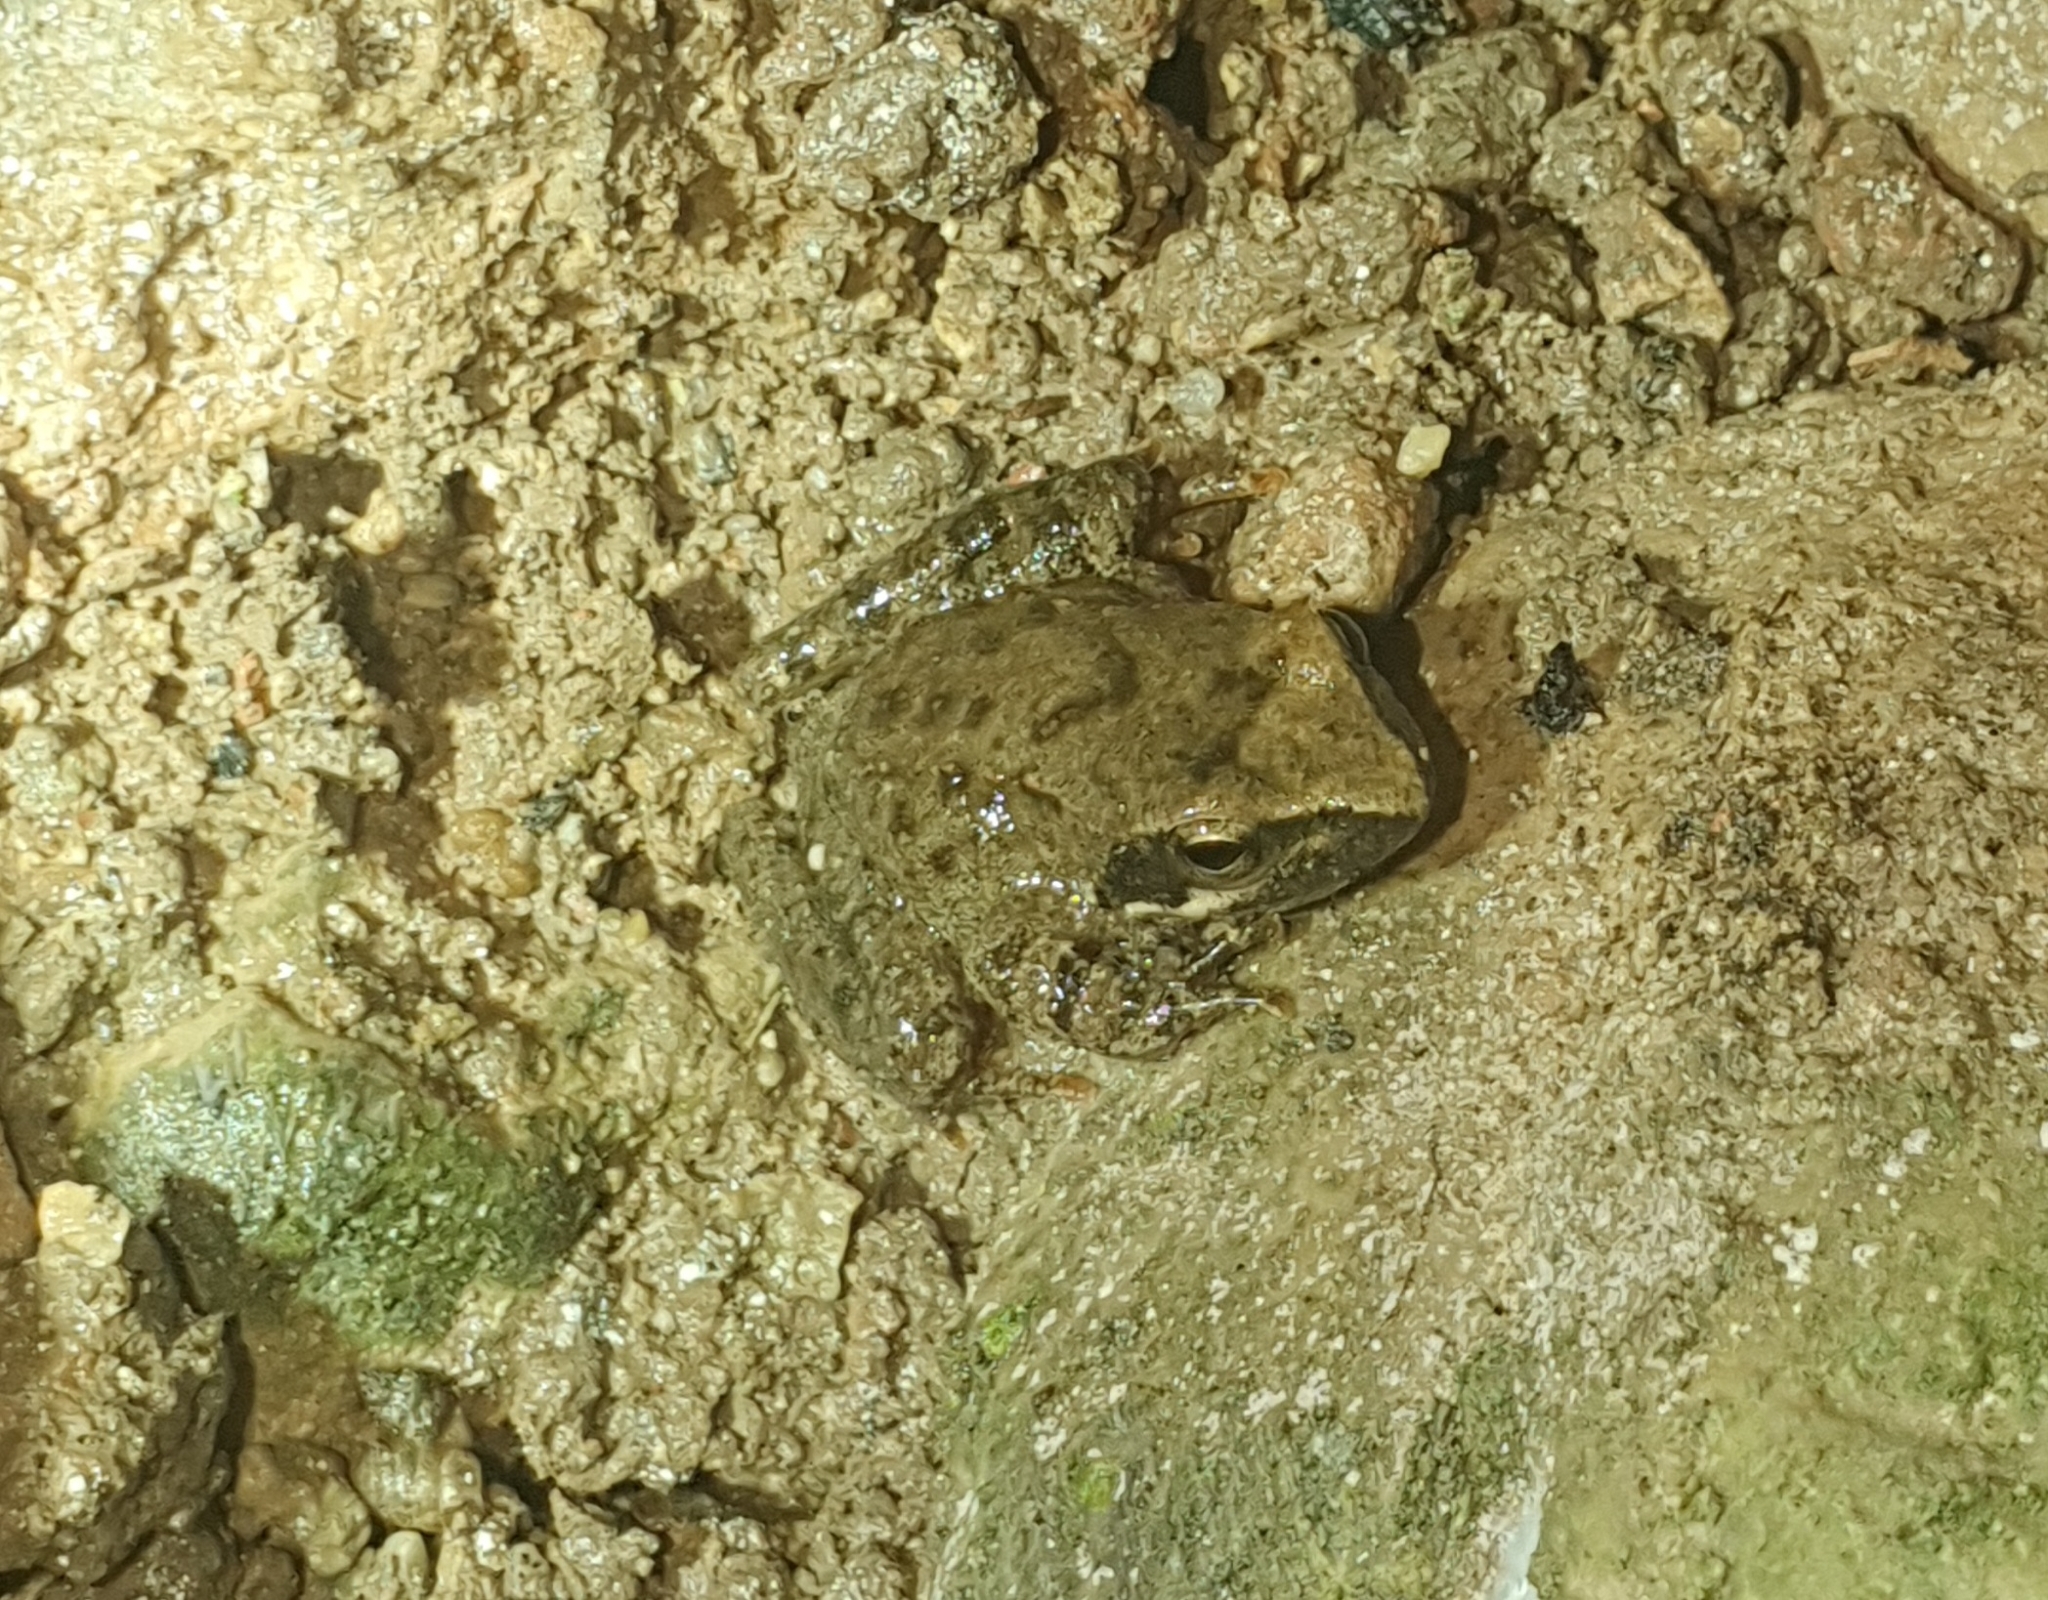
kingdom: Animalia
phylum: Chordata
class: Amphibia
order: Anura
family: Ranidae
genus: Rana
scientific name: Rana italica
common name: Italian stream frog
